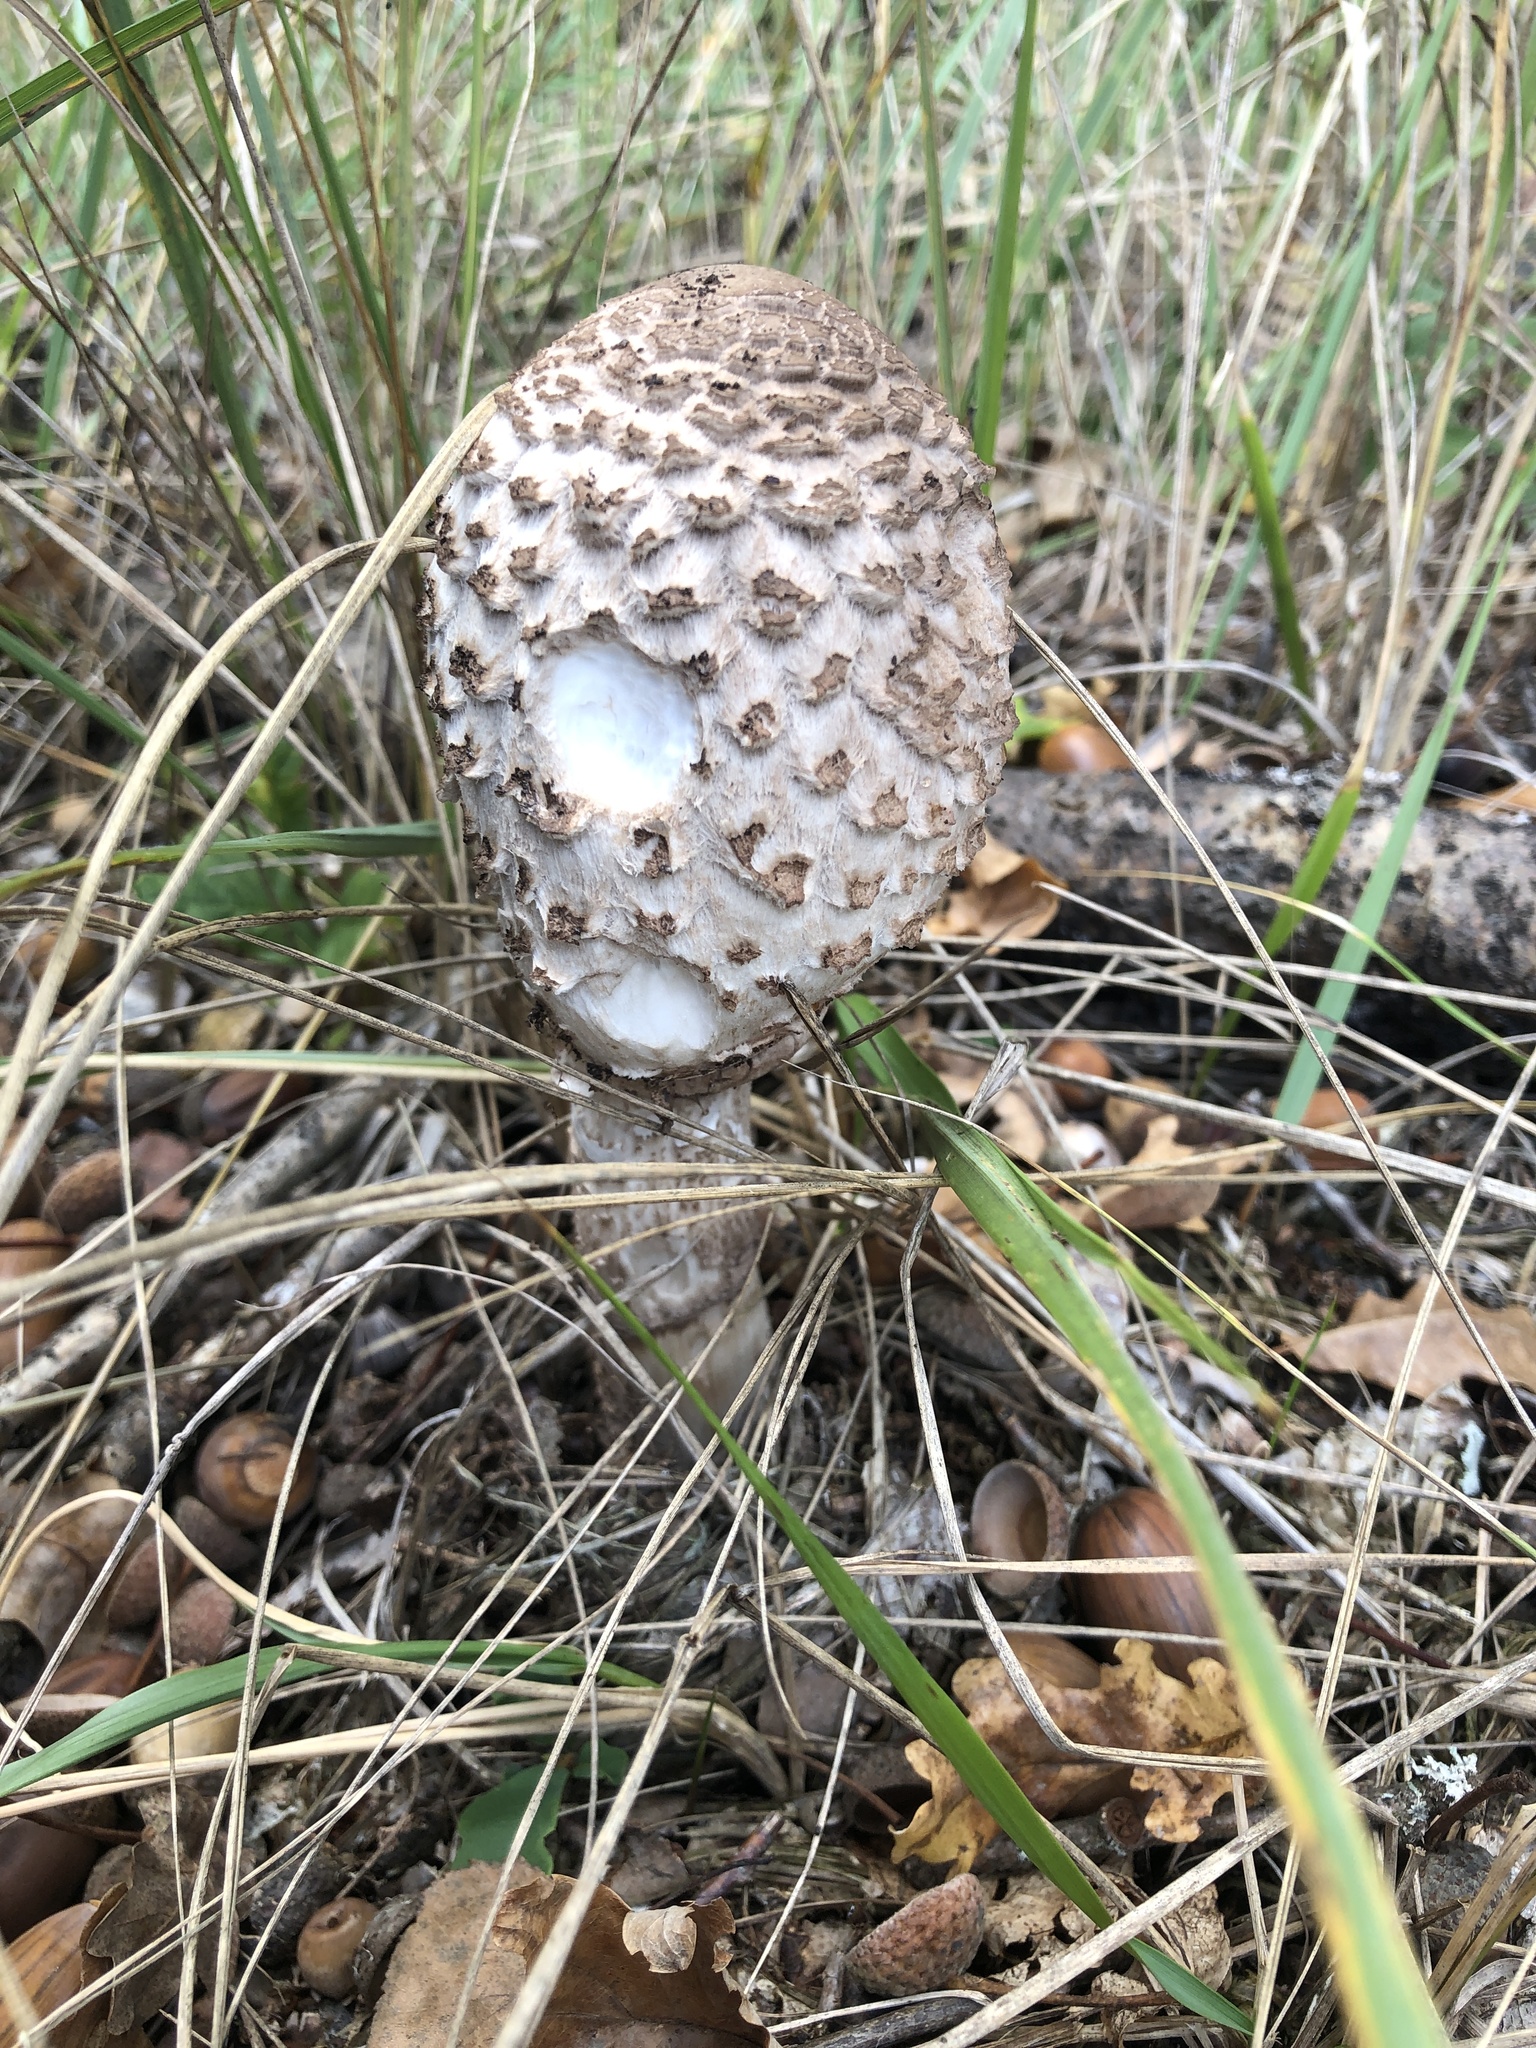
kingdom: Fungi
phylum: Basidiomycota
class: Agaricomycetes
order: Agaricales
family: Agaricaceae
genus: Macrolepiota
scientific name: Macrolepiota procera
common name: Parasol
